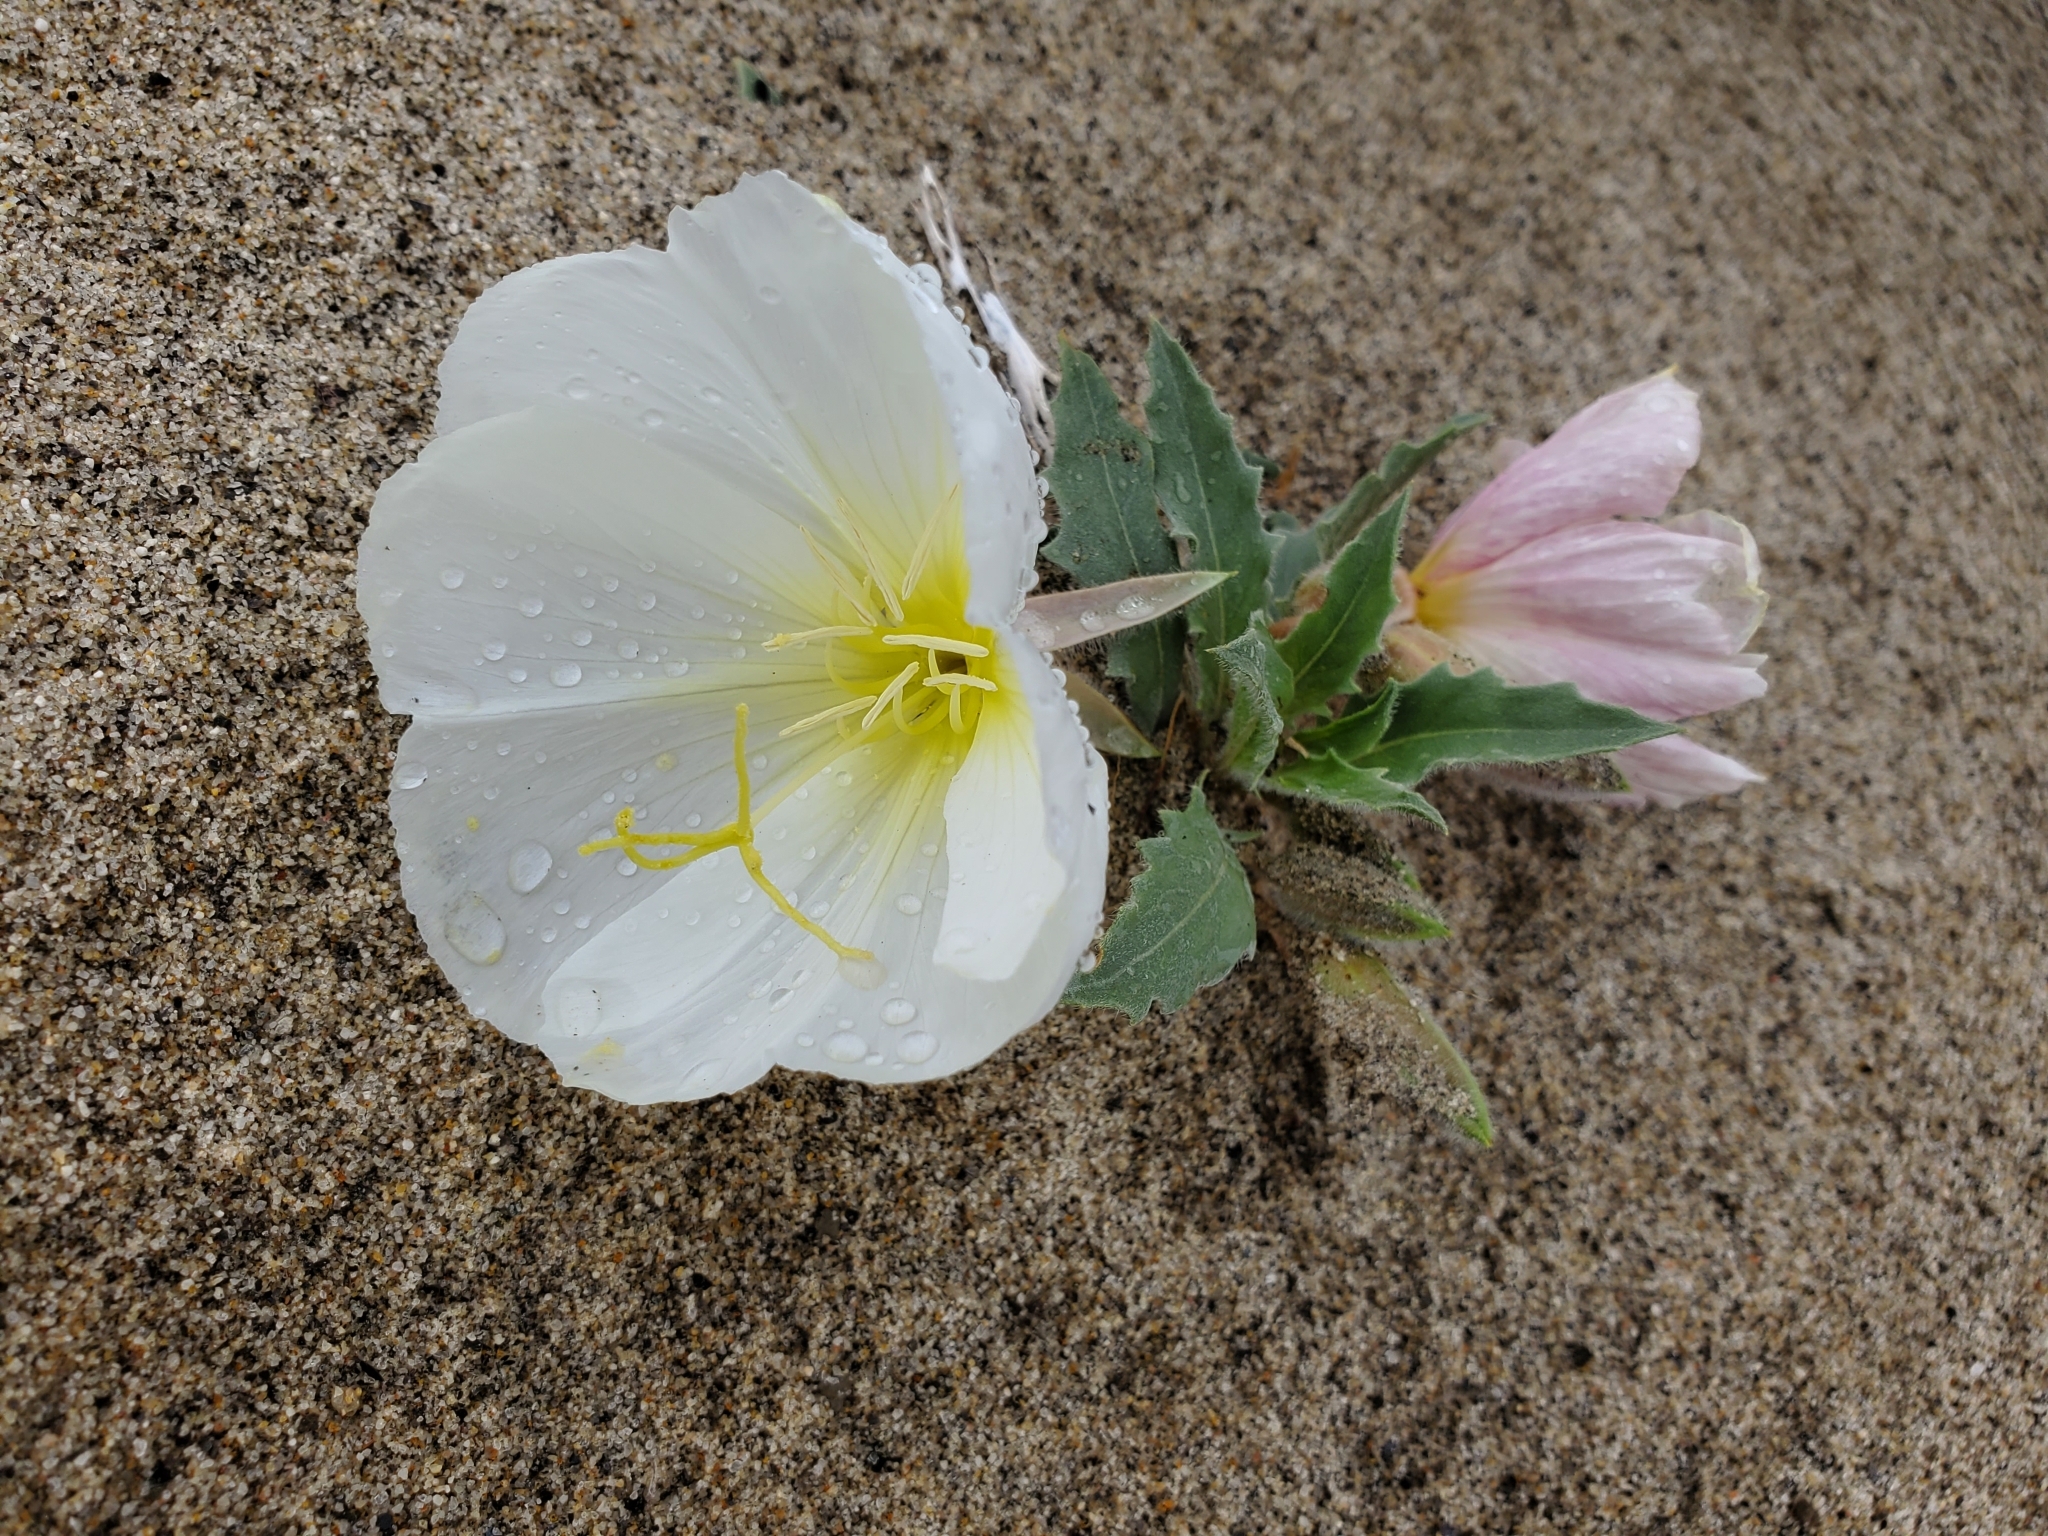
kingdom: Plantae
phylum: Tracheophyta
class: Magnoliopsida
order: Myrtales
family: Onagraceae
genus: Oenothera
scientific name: Oenothera deltoides
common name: Basket evening-primrose
